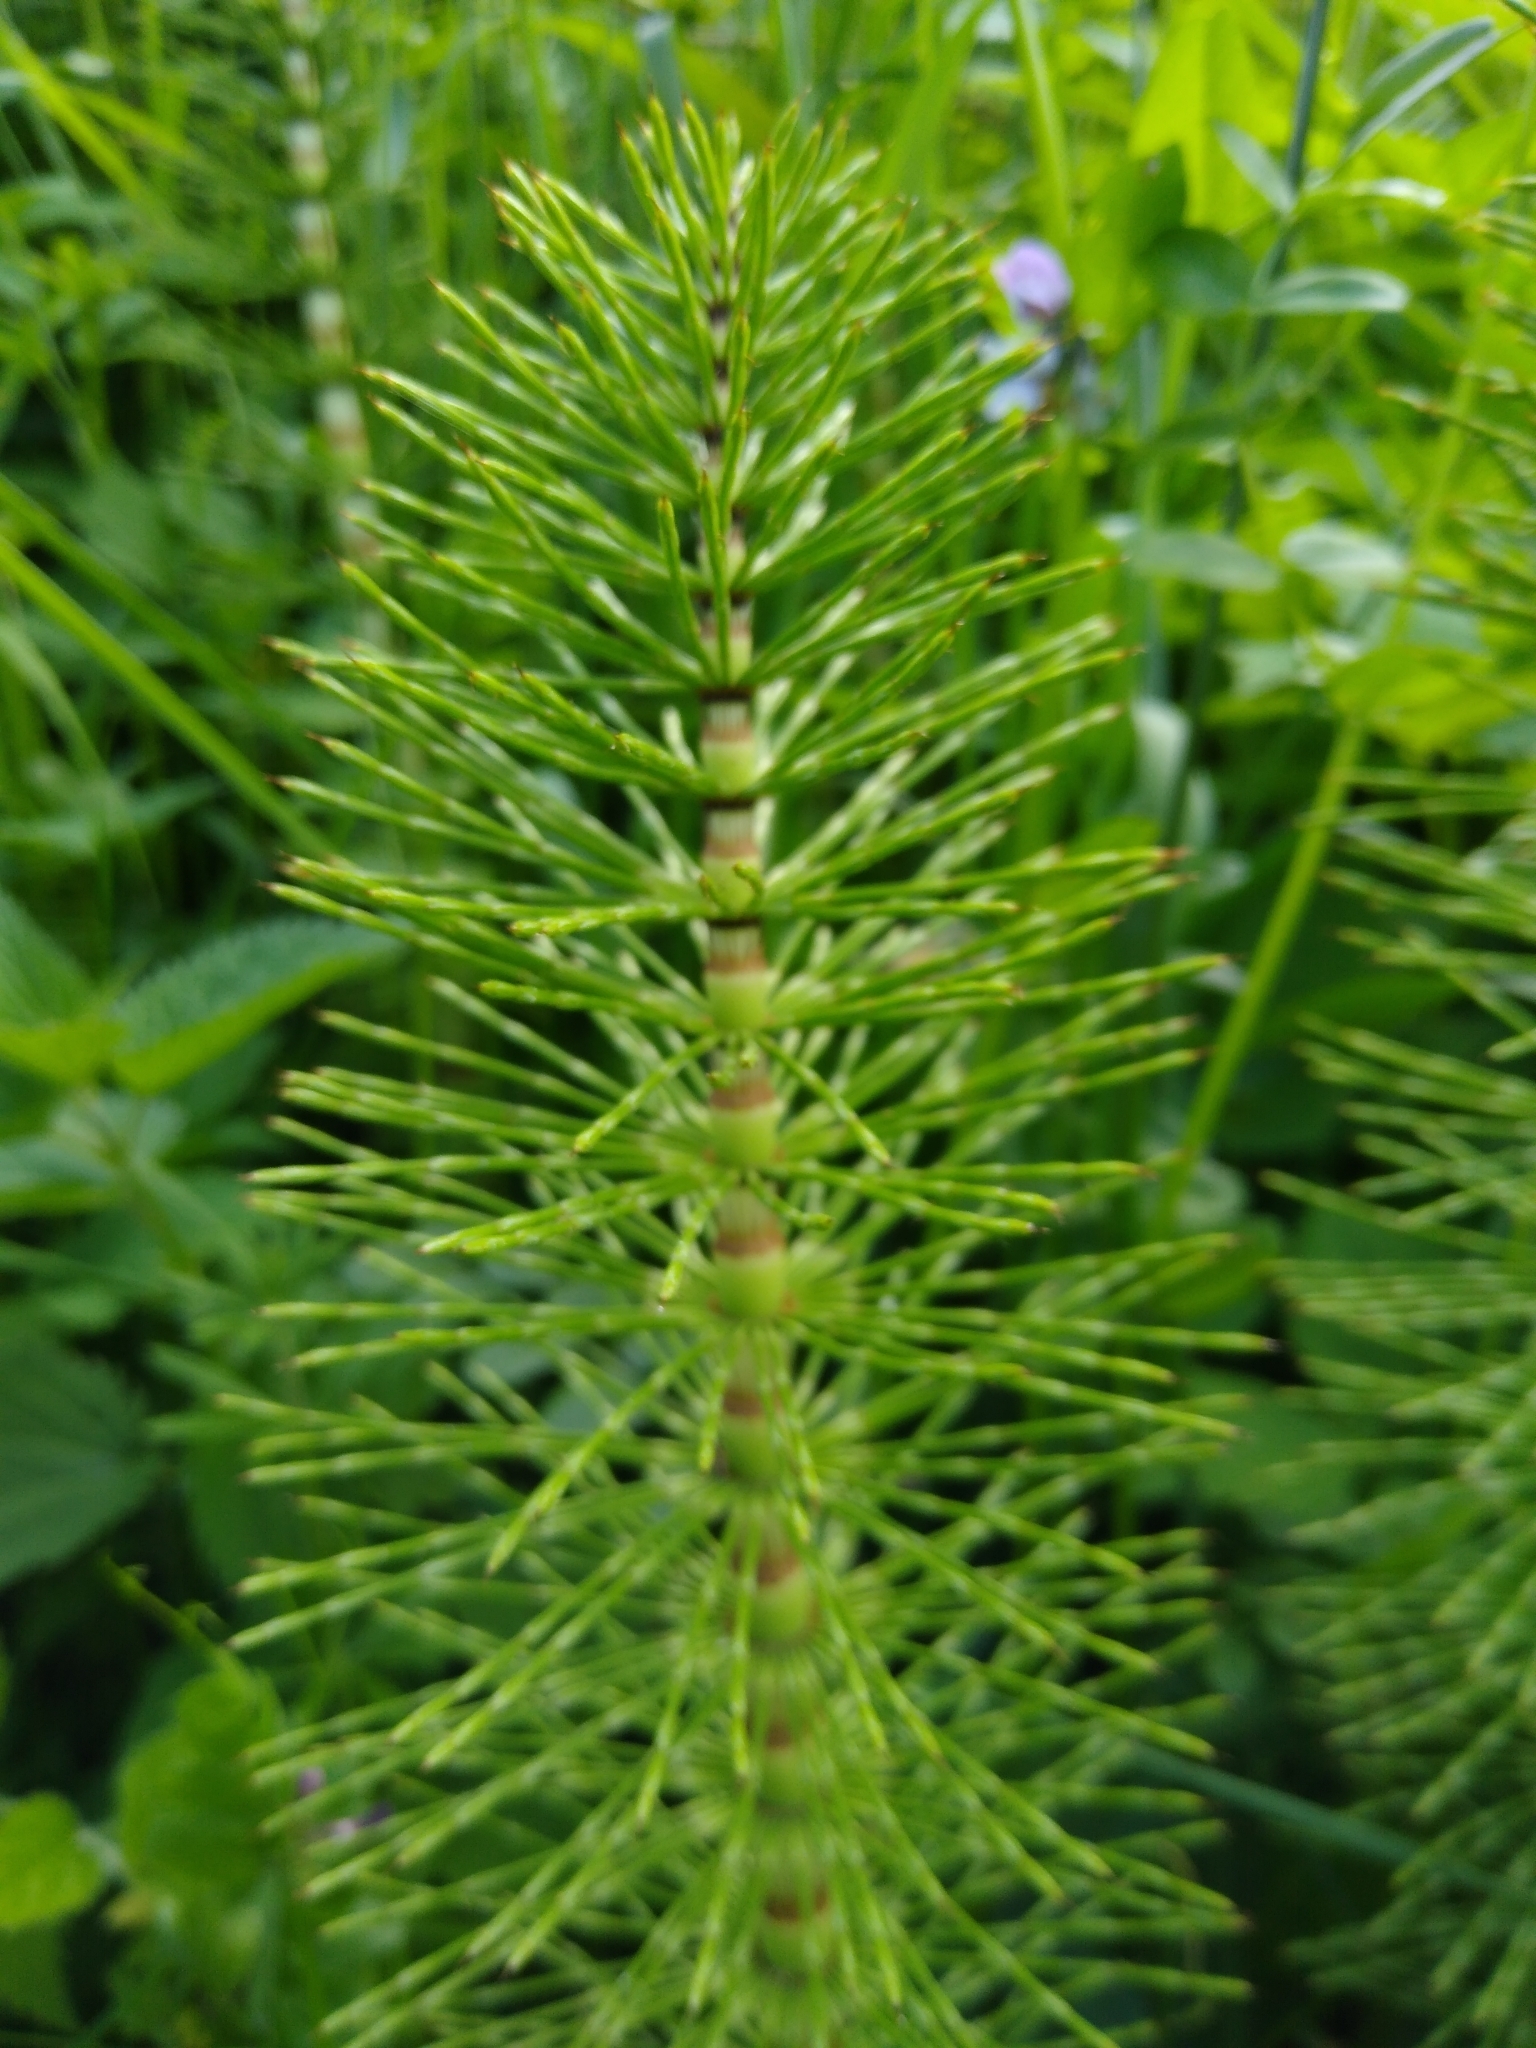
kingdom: Plantae
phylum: Tracheophyta
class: Polypodiopsida
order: Equisetales
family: Equisetaceae
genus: Equisetum
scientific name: Equisetum telmateia
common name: Great horsetail
